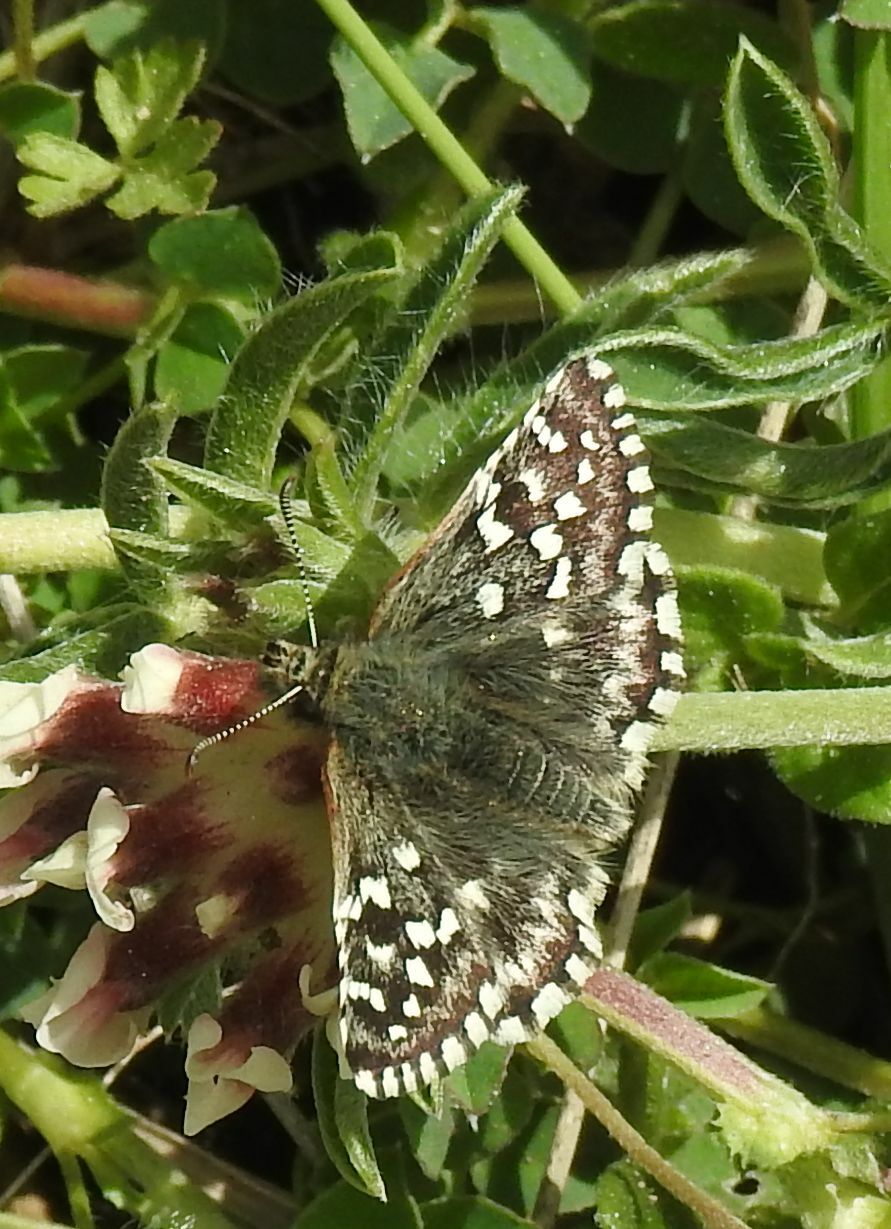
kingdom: Animalia
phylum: Arthropoda
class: Insecta
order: Lepidoptera
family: Hesperiidae
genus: Pyrgus
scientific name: Pyrgus malvoides
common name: Southern grizzled skipper
